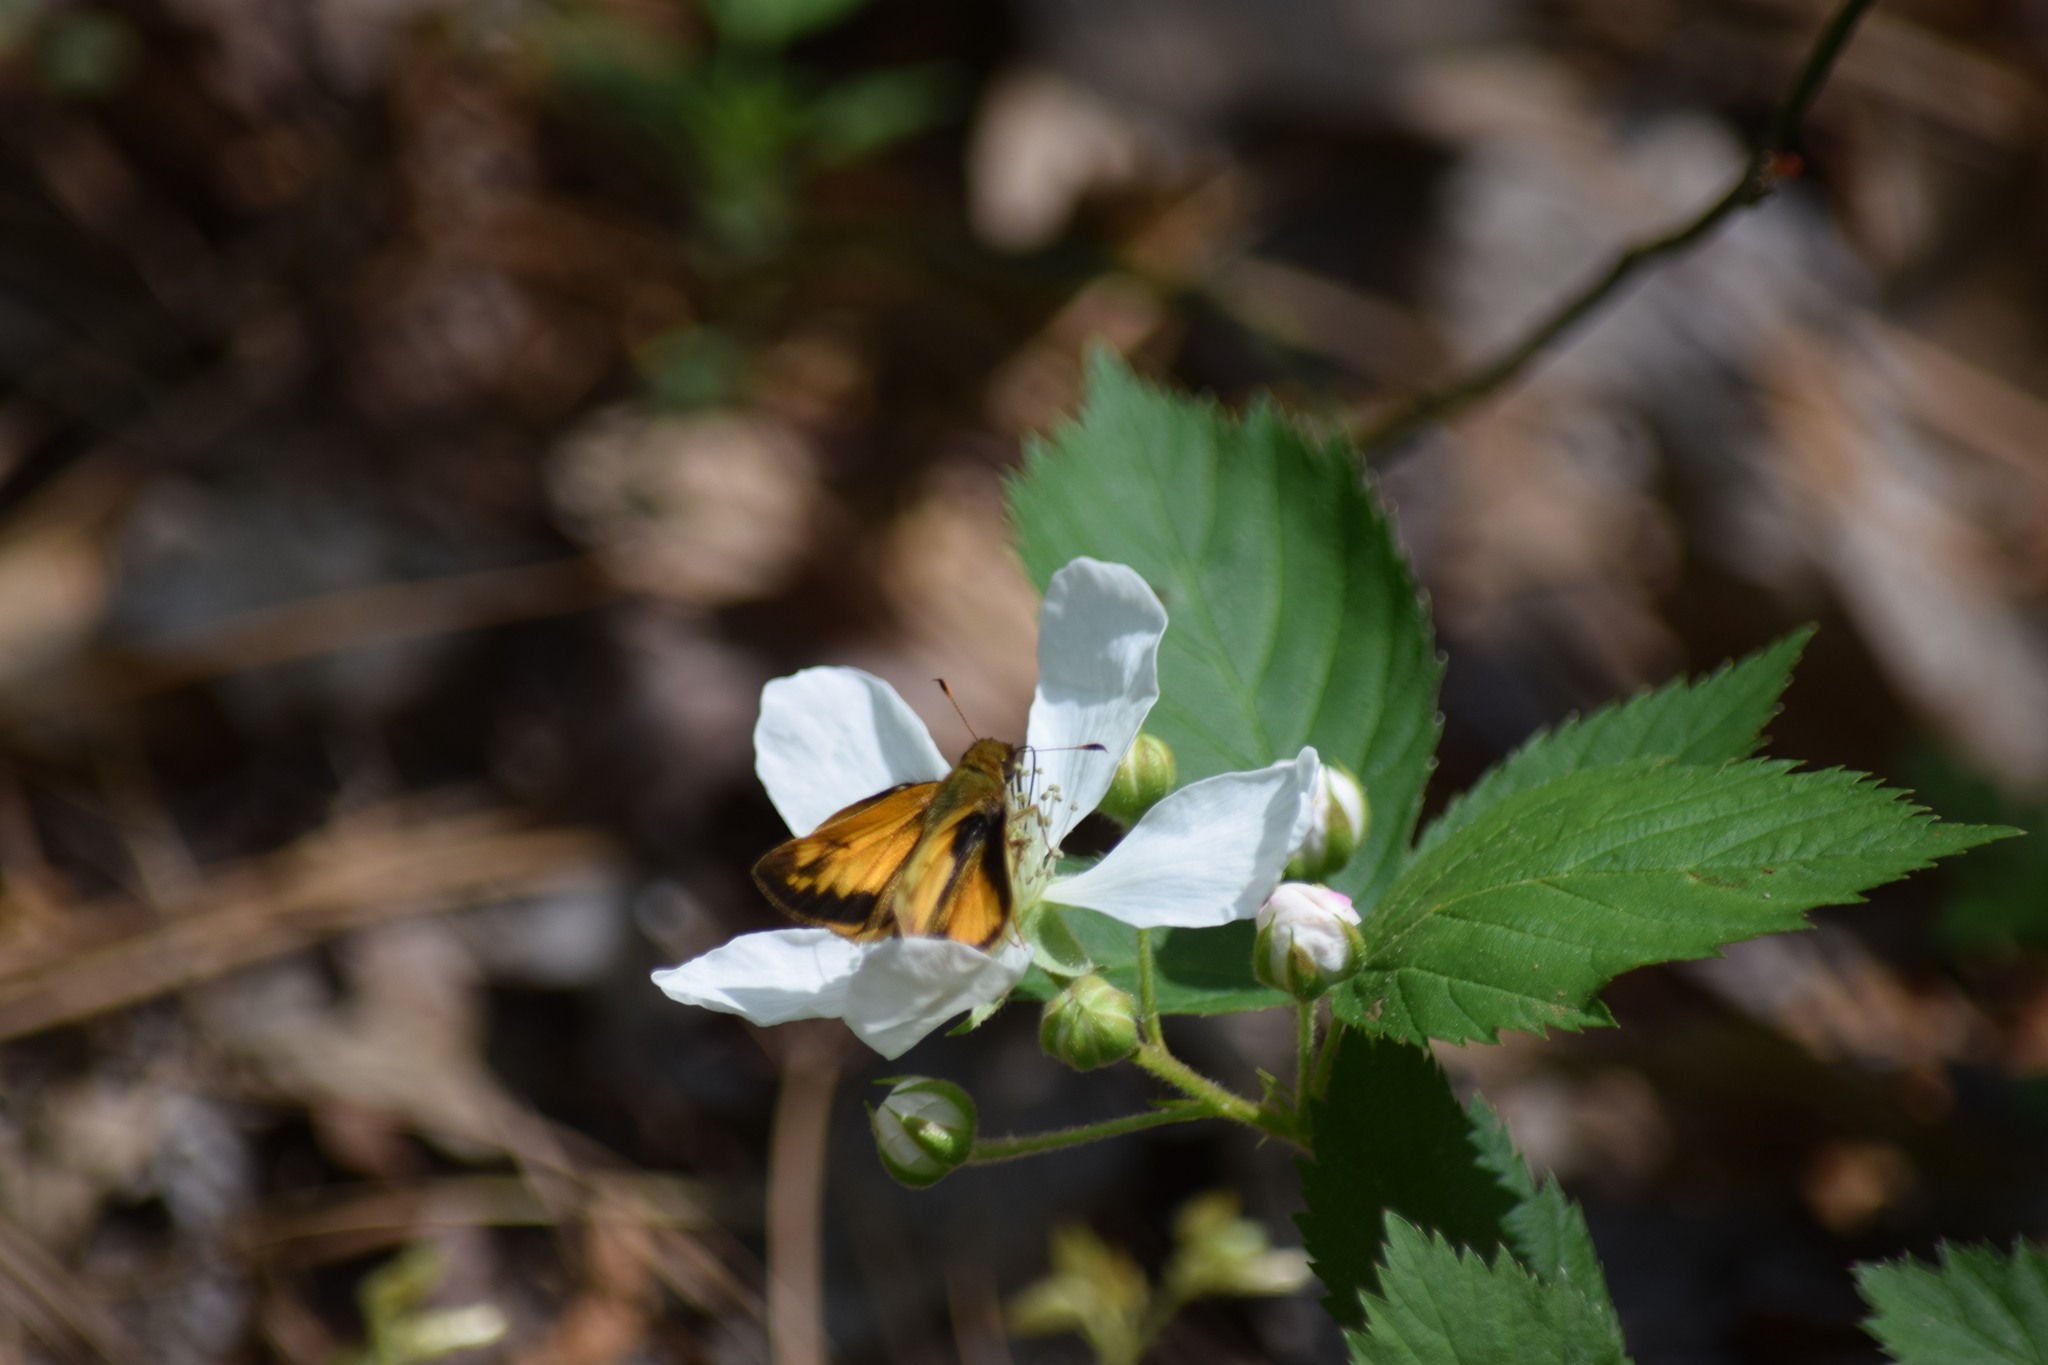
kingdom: Animalia
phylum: Arthropoda
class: Insecta
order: Lepidoptera
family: Hesperiidae
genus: Lon
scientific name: Lon zabulon
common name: Zabulon skipper
